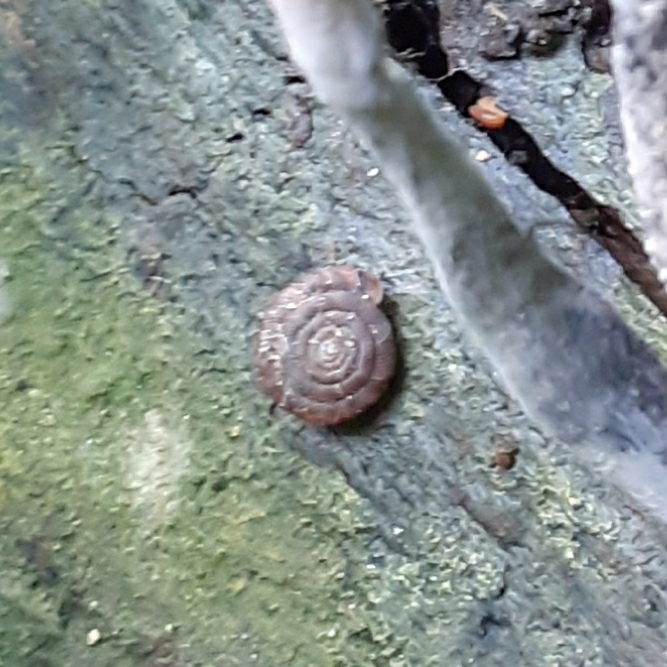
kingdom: Animalia
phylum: Mollusca
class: Gastropoda
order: Stylommatophora
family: Discidae
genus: Discus
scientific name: Discus rotundatus
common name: Rounded snail
